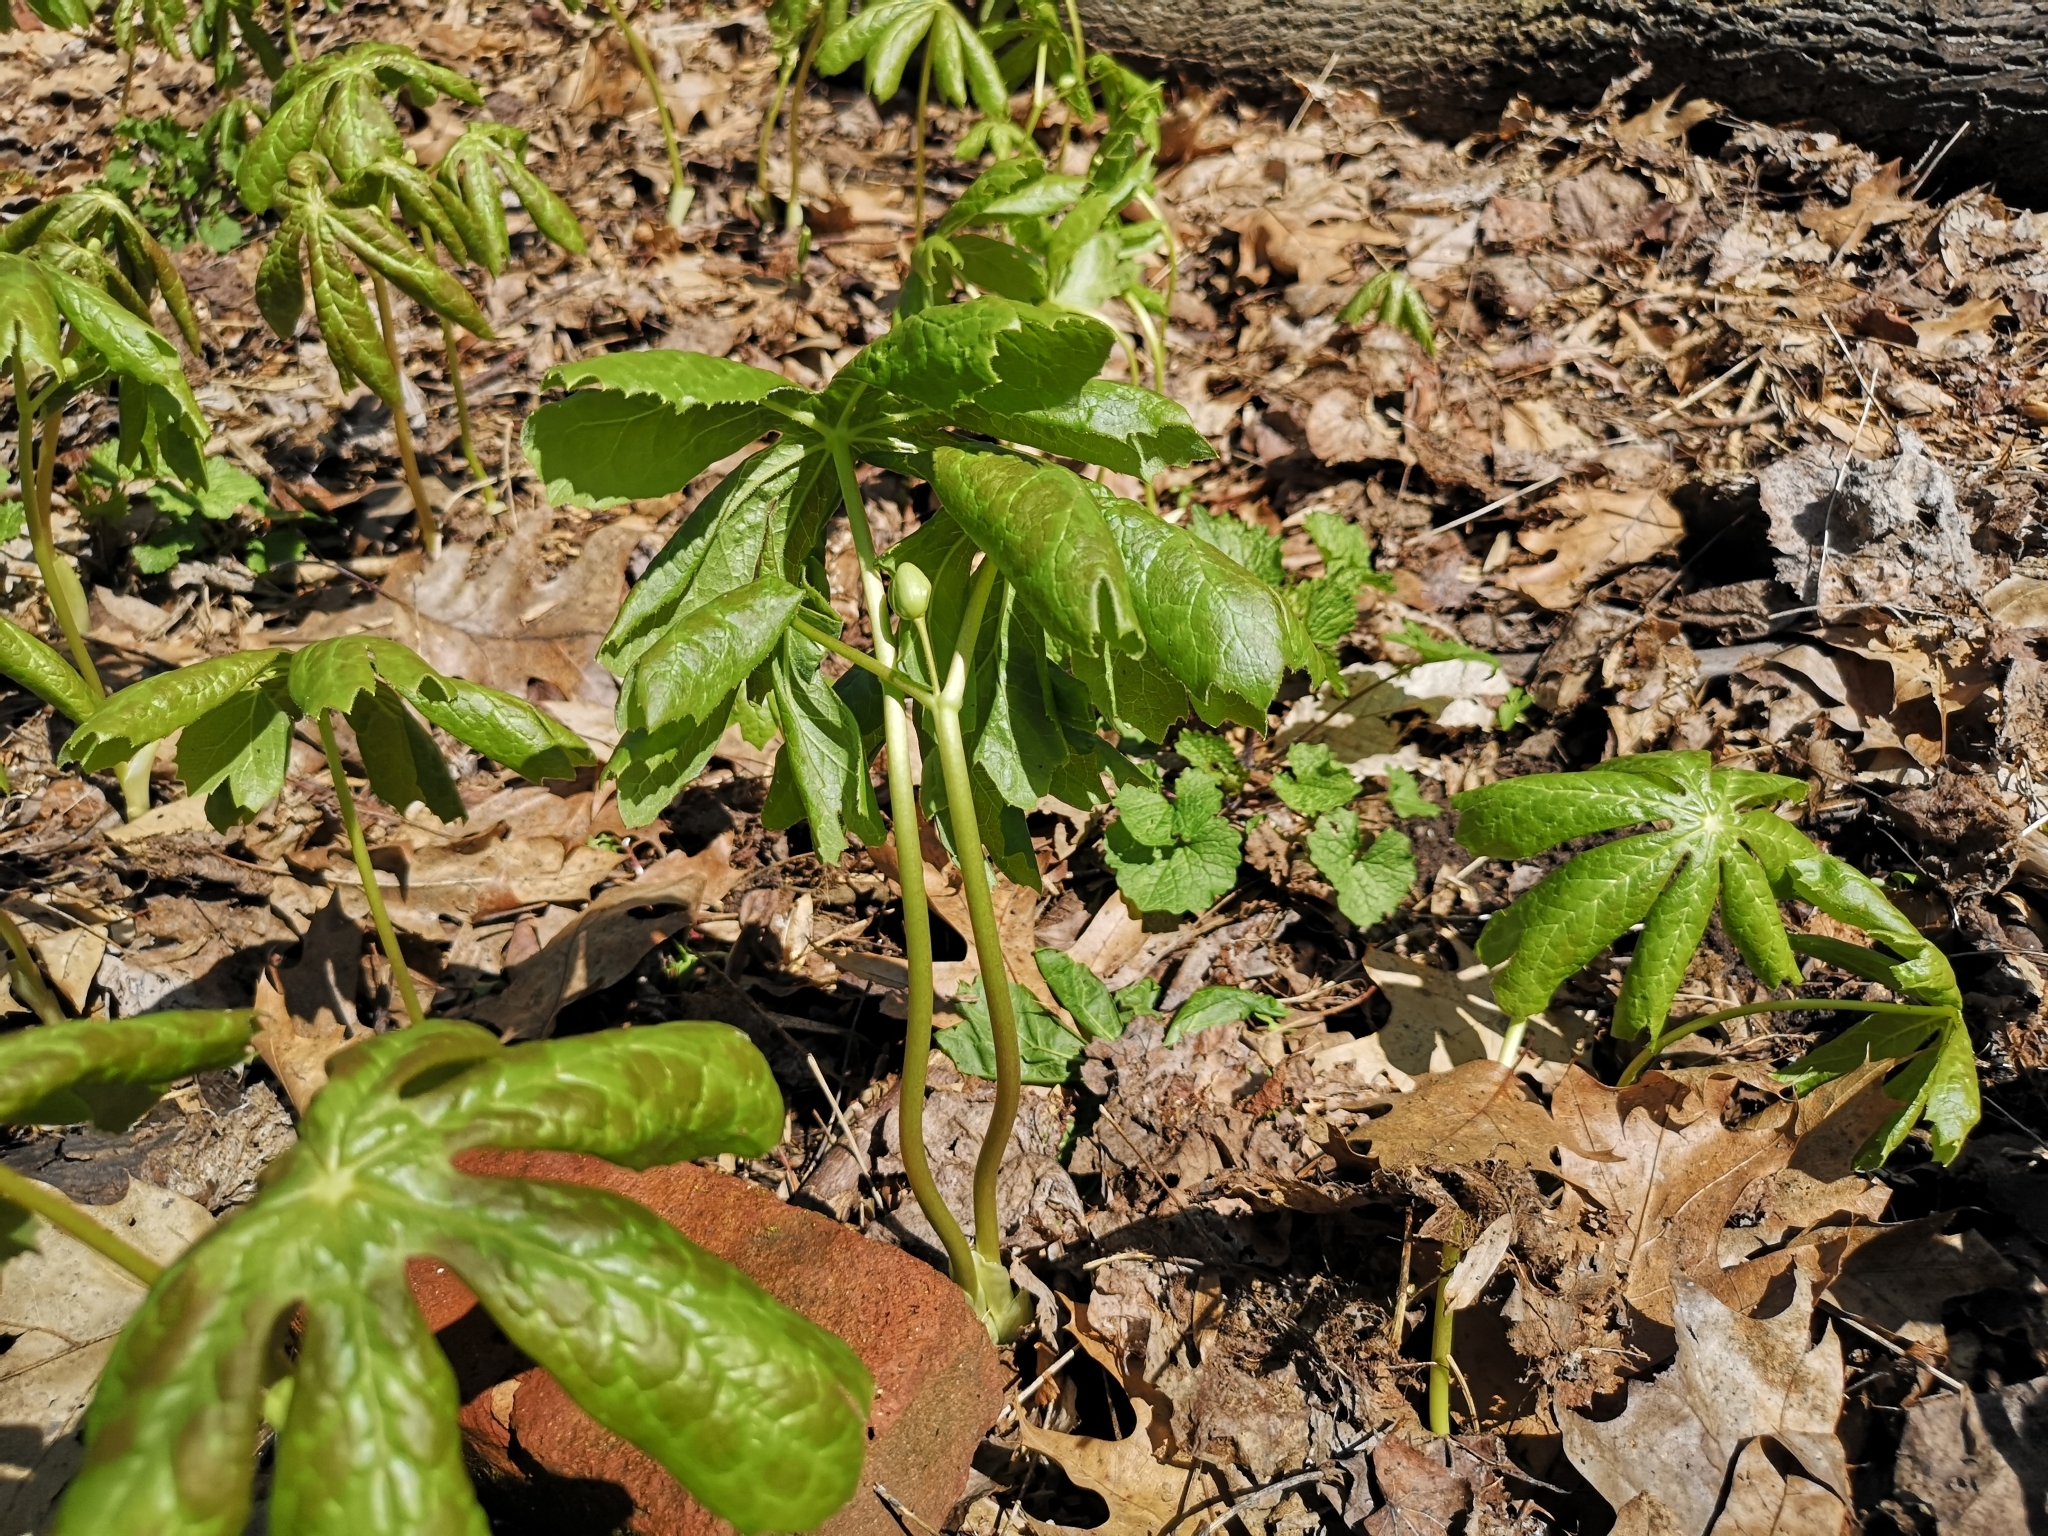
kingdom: Plantae
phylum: Tracheophyta
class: Magnoliopsida
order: Ranunculales
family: Berberidaceae
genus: Podophyllum
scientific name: Podophyllum peltatum
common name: Wild mandrake
